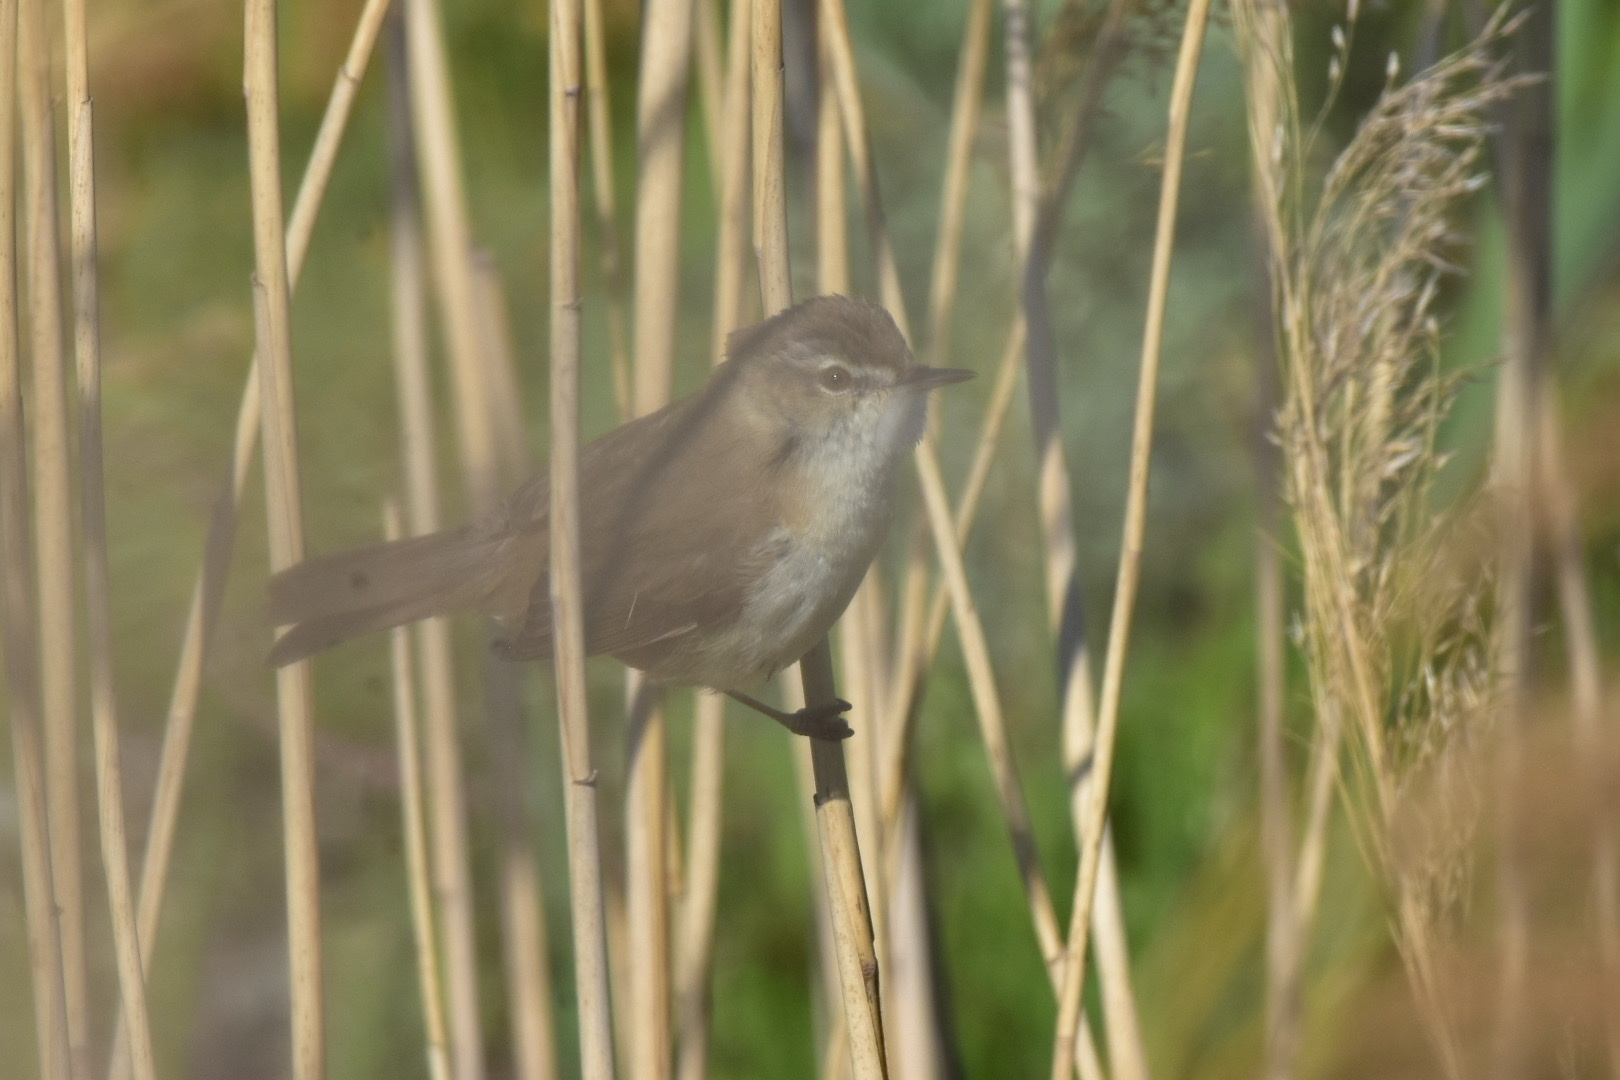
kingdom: Animalia
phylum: Chordata
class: Aves
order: Passeriformes
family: Acrocephalidae
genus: Acrocephalus
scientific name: Acrocephalus agricola
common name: Paddyfield warbler
